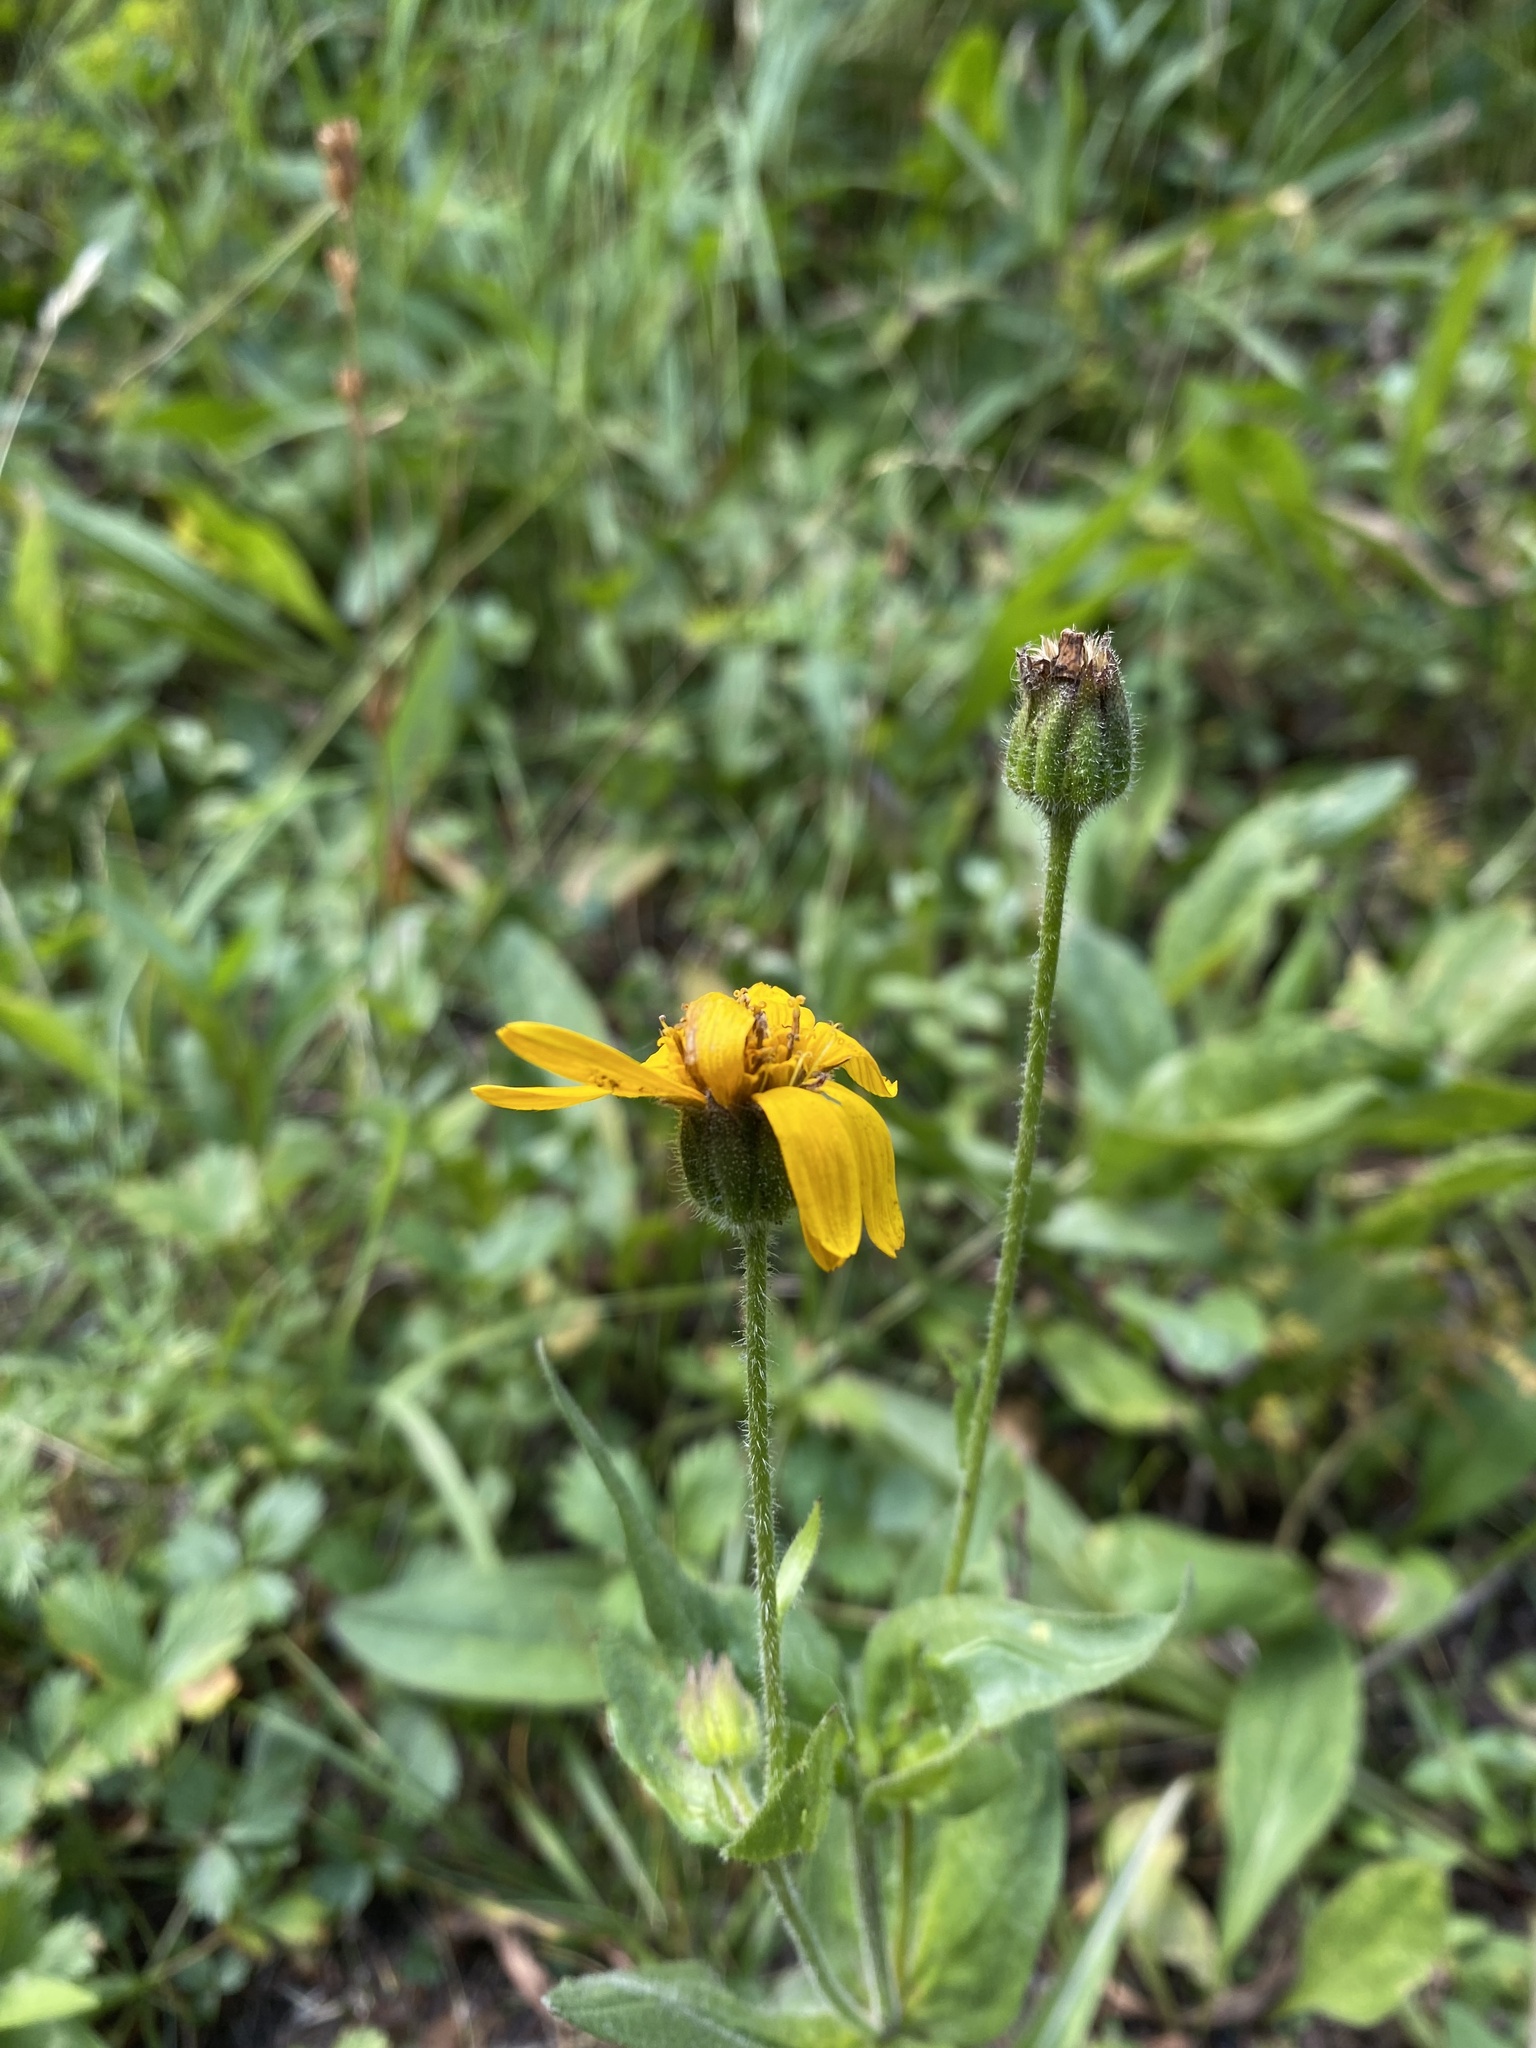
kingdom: Plantae
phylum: Tracheophyta
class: Magnoliopsida
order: Asterales
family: Asteraceae
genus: Arnica
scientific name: Arnica mollis
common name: Hairy arnica
